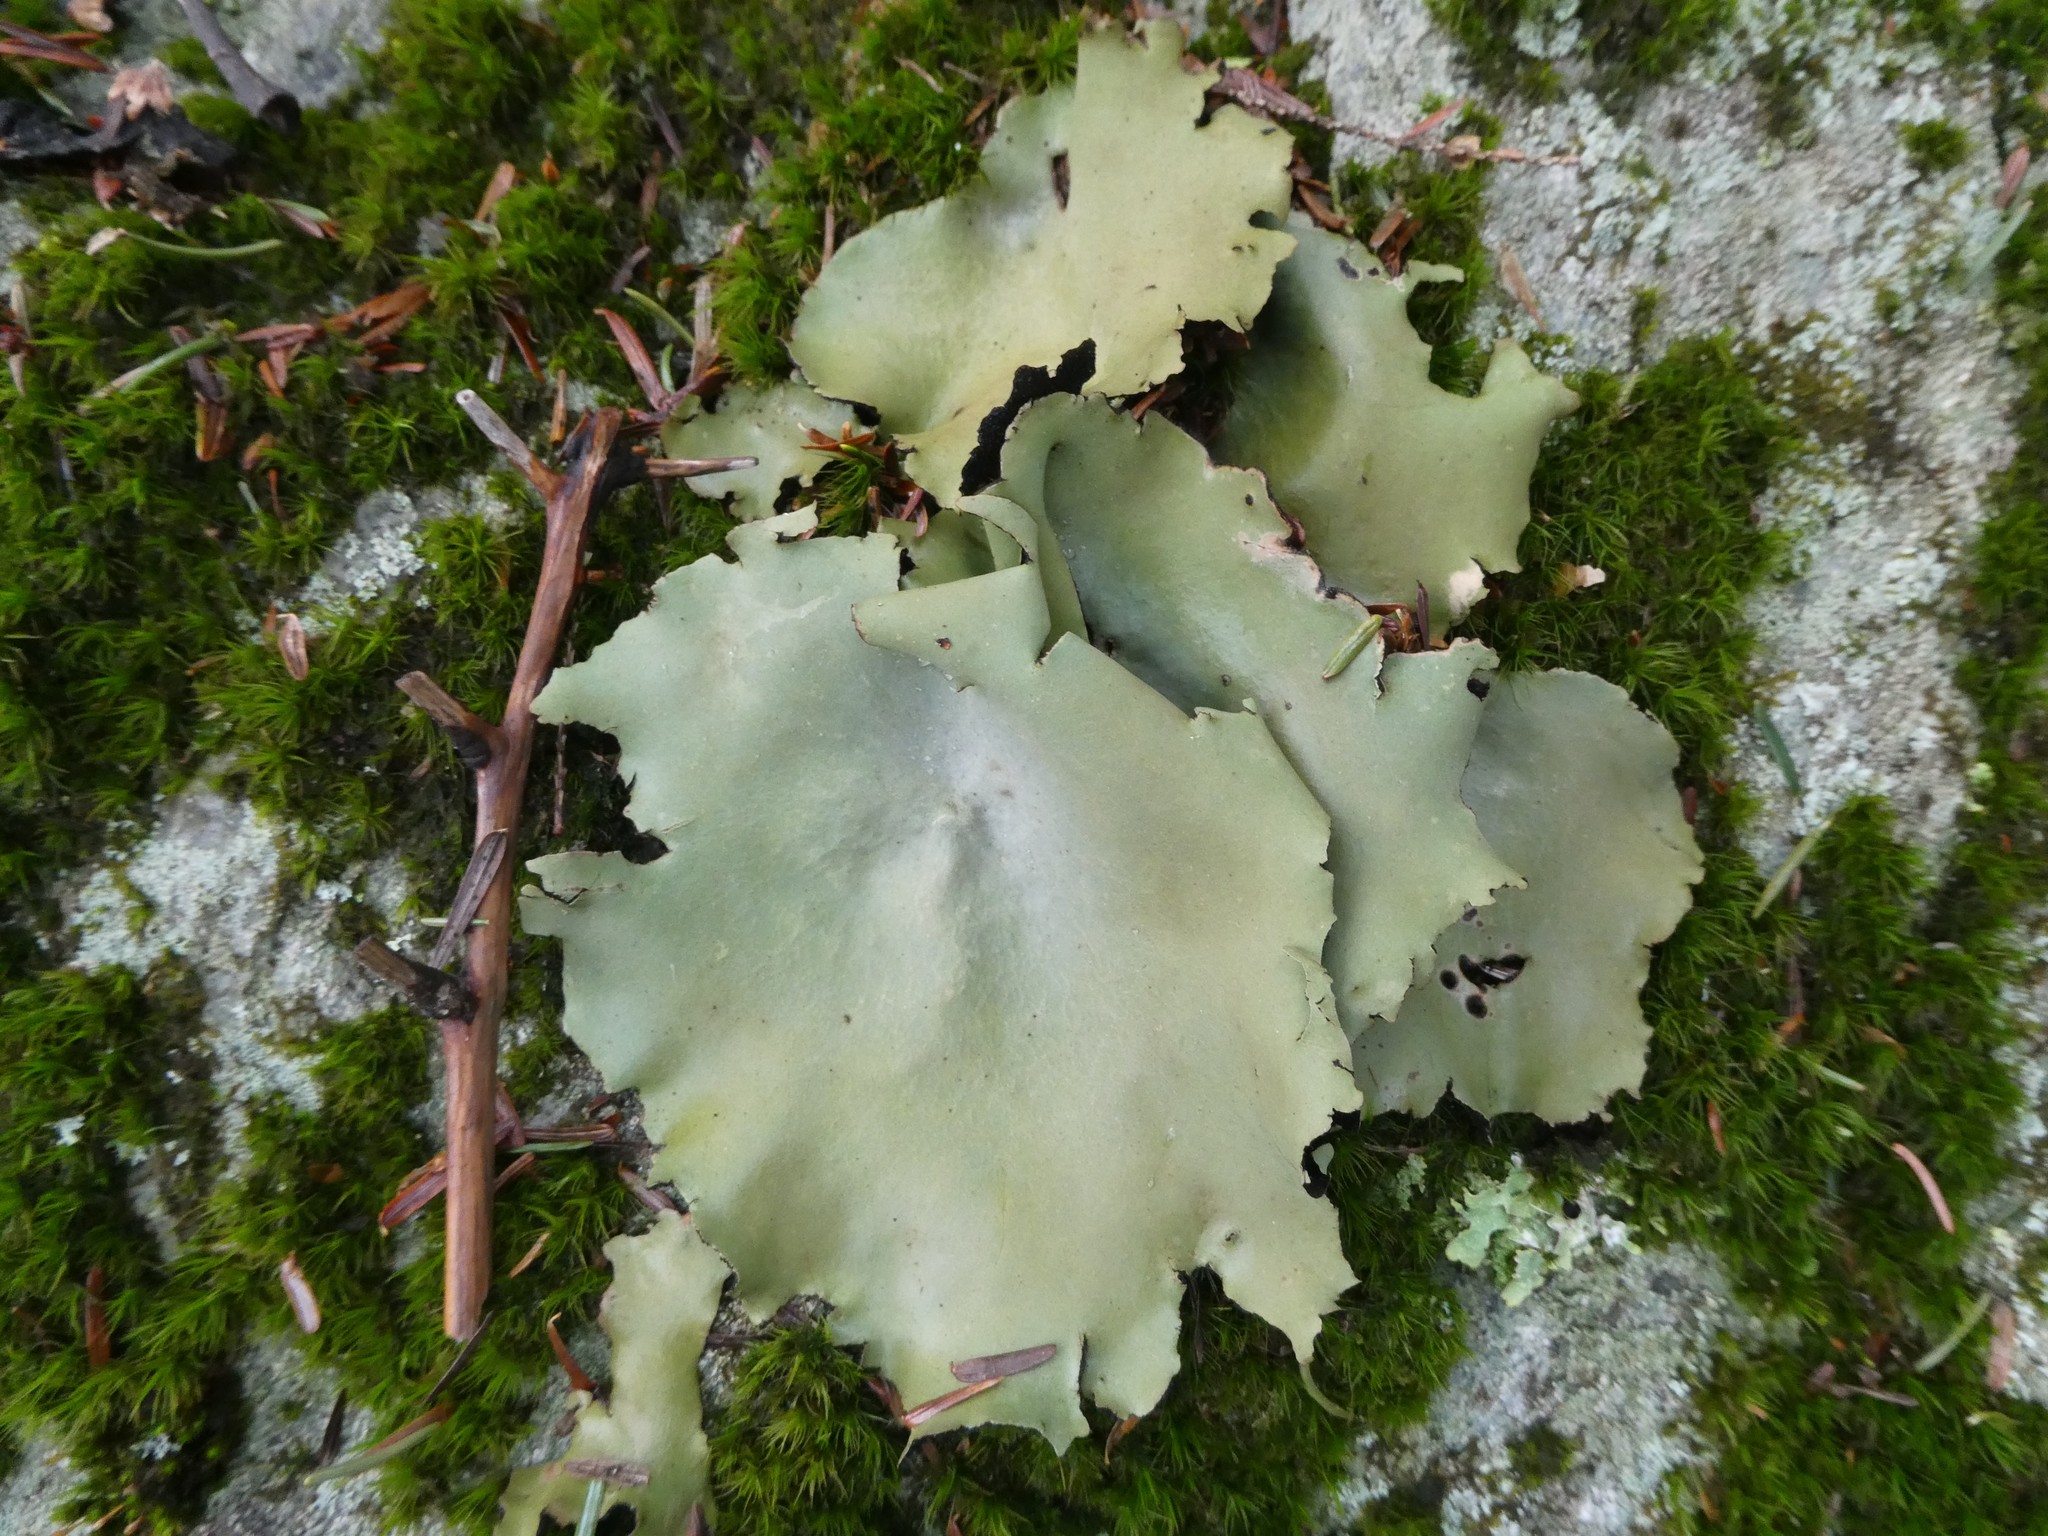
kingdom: Fungi
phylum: Ascomycota
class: Lecanoromycetes
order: Umbilicariales
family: Umbilicariaceae
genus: Umbilicaria
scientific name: Umbilicaria mammulata
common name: Smooth rock tripe
